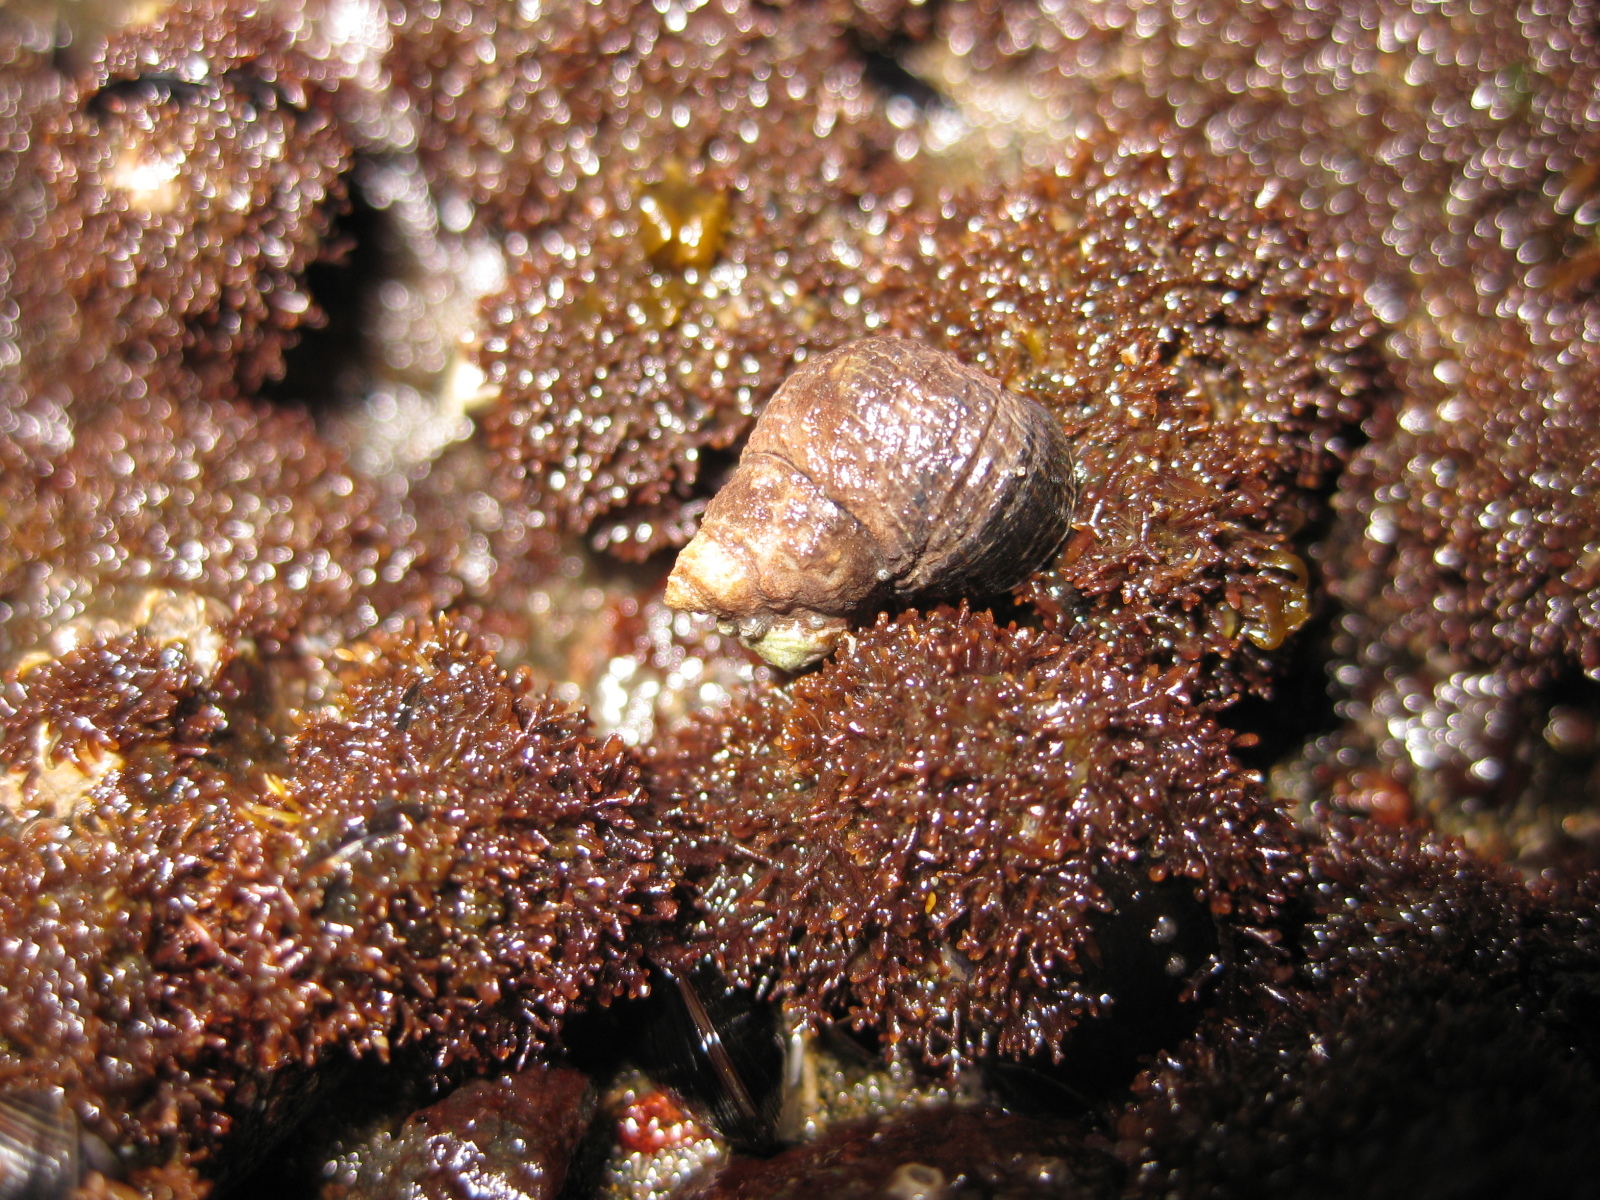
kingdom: Plantae
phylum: Rhodophyta
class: Florideophyceae
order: Gelidiales
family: Gelidiaceae
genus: Capreolia
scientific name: Capreolia implexa
